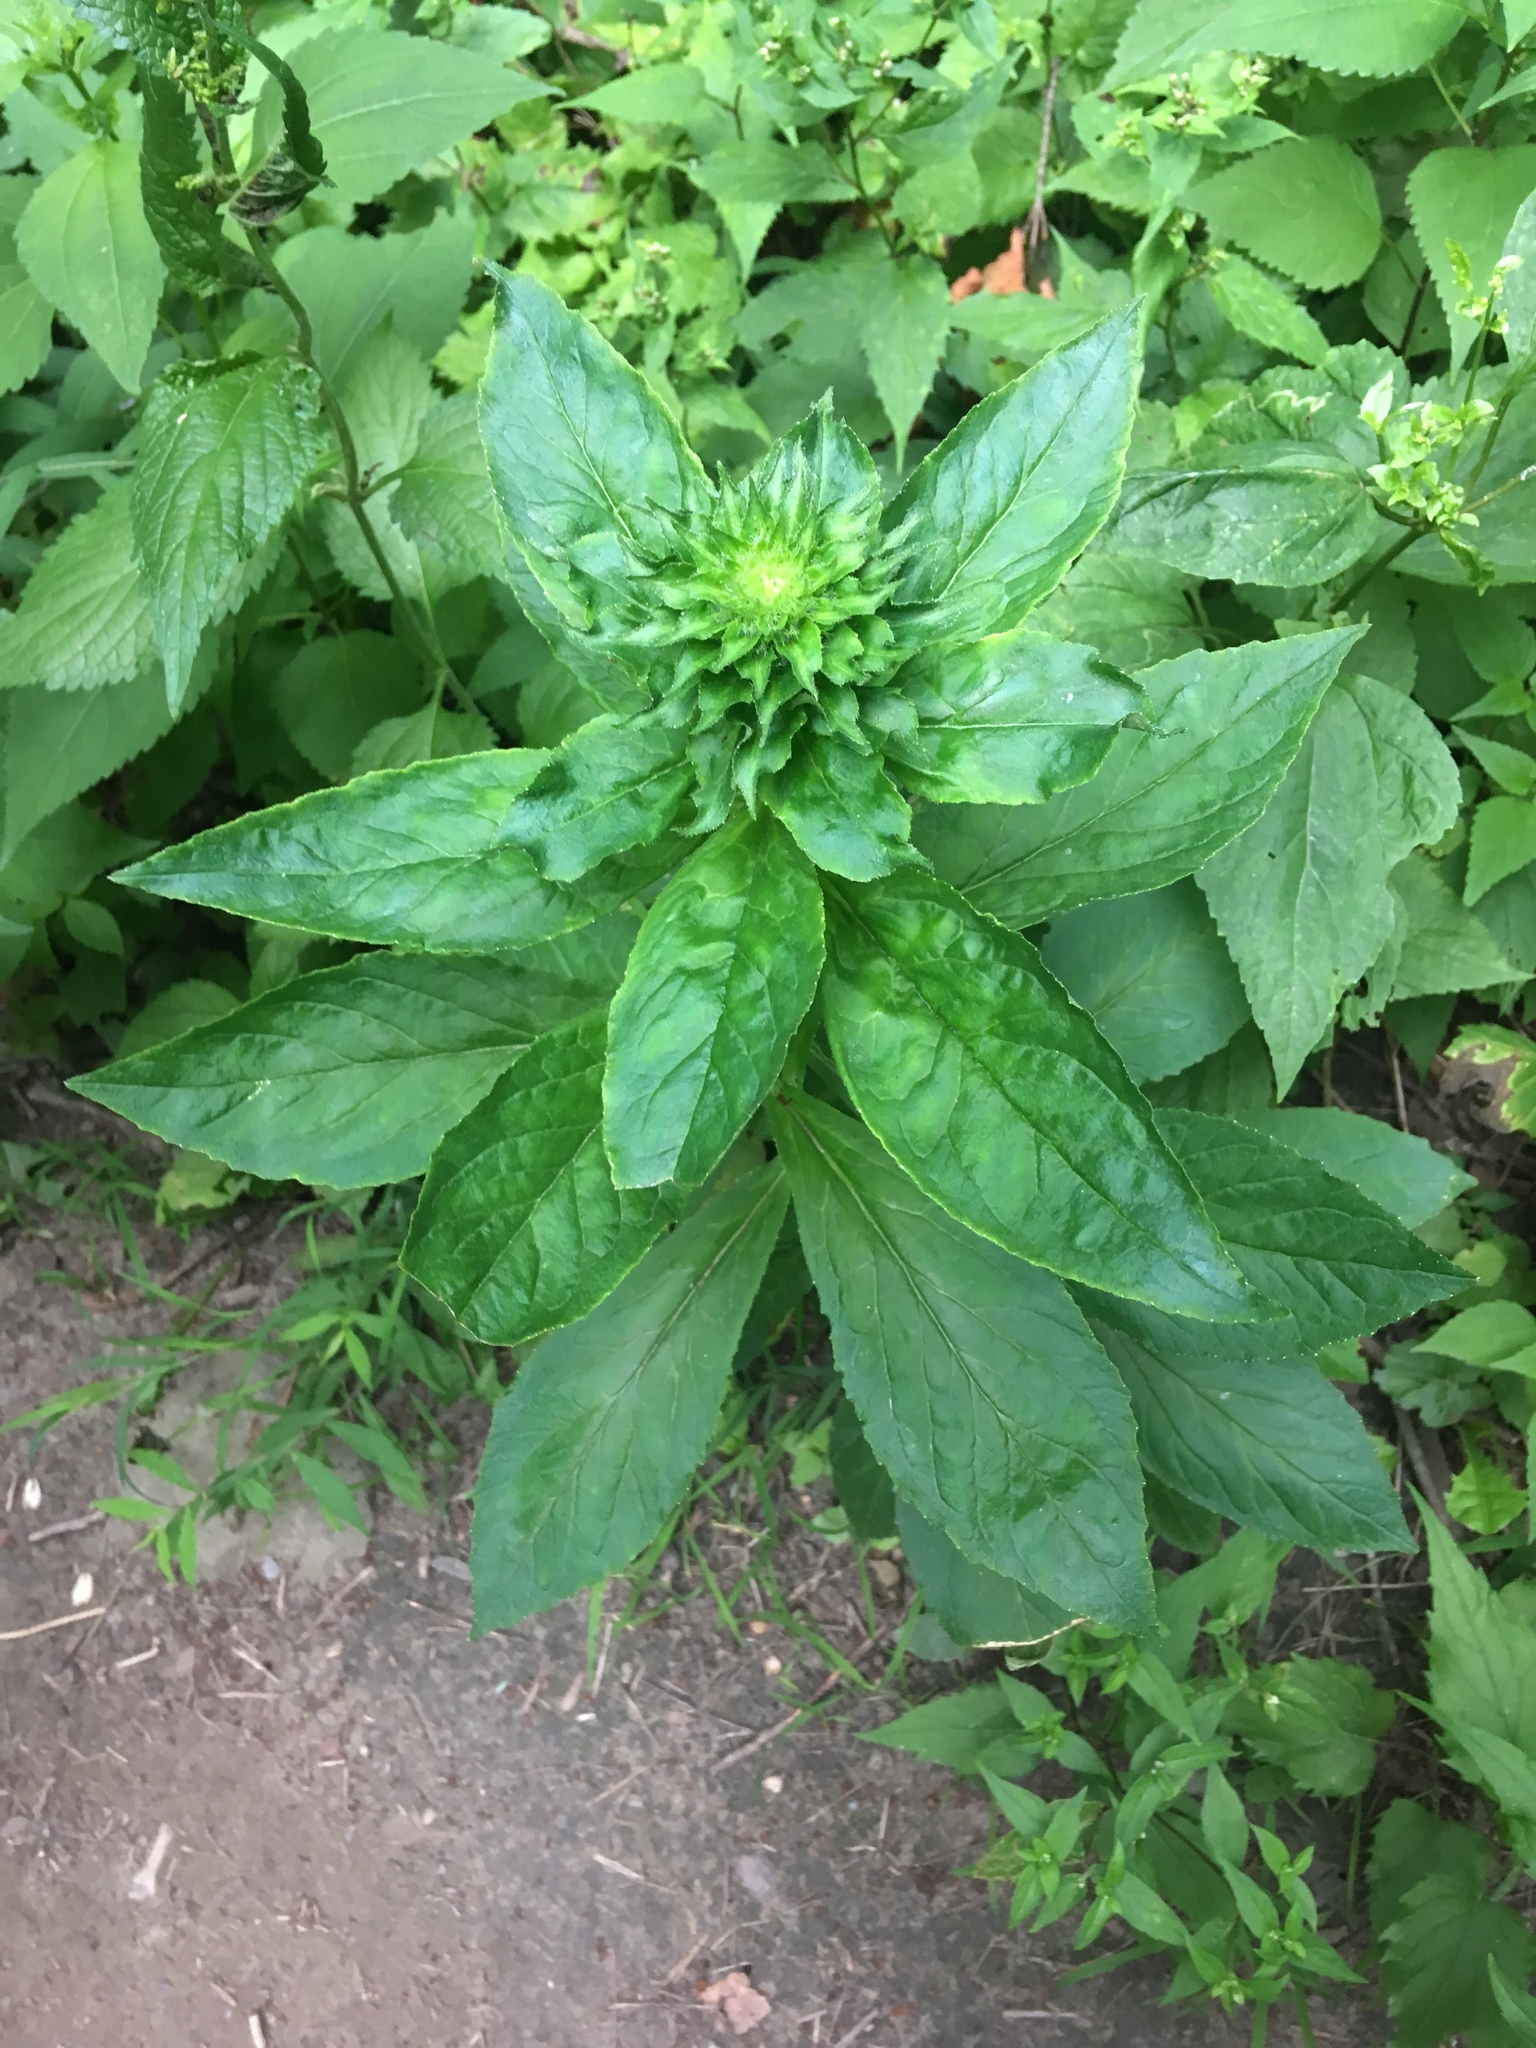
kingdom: Plantae
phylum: Tracheophyta
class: Magnoliopsida
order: Asterales
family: Campanulaceae
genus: Lobelia
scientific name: Lobelia siphilitica
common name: Great lobelia
